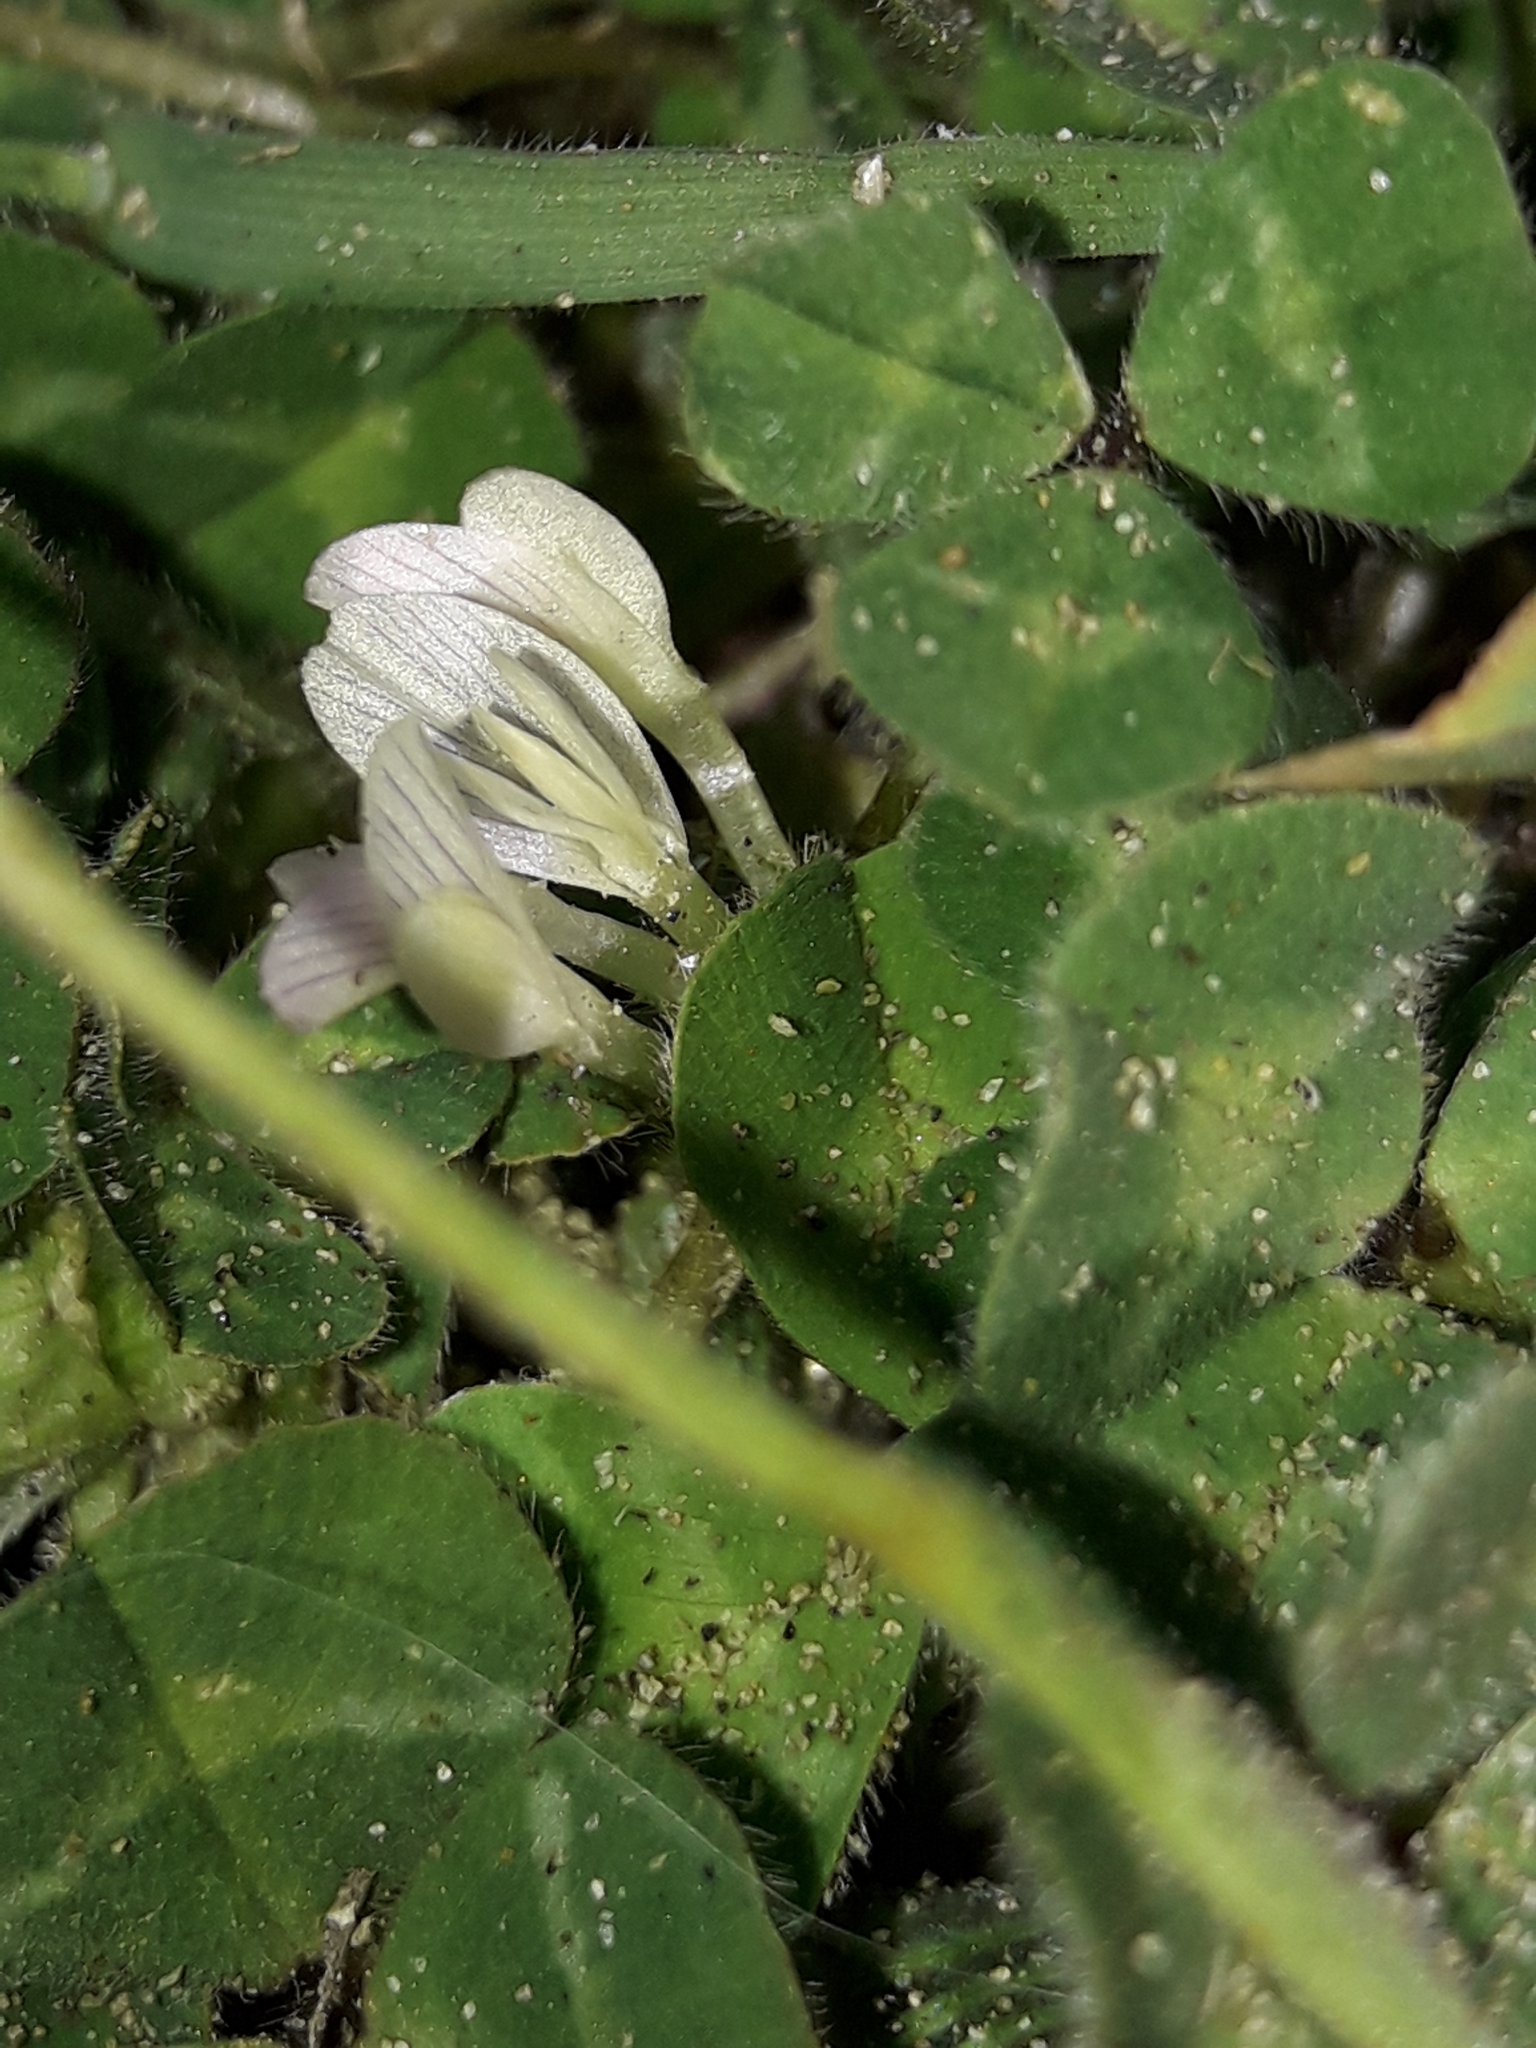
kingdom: Plantae
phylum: Tracheophyta
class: Magnoliopsida
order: Fabales
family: Fabaceae
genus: Trifolium
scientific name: Trifolium subterraneum
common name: Subterranean clover
